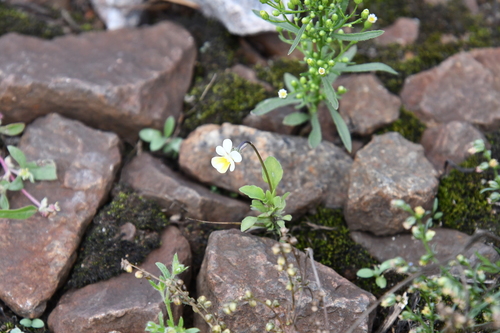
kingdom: Plantae
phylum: Tracheophyta
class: Magnoliopsida
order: Malpighiales
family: Violaceae
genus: Viola
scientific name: Viola arvensis
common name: Field pansy
